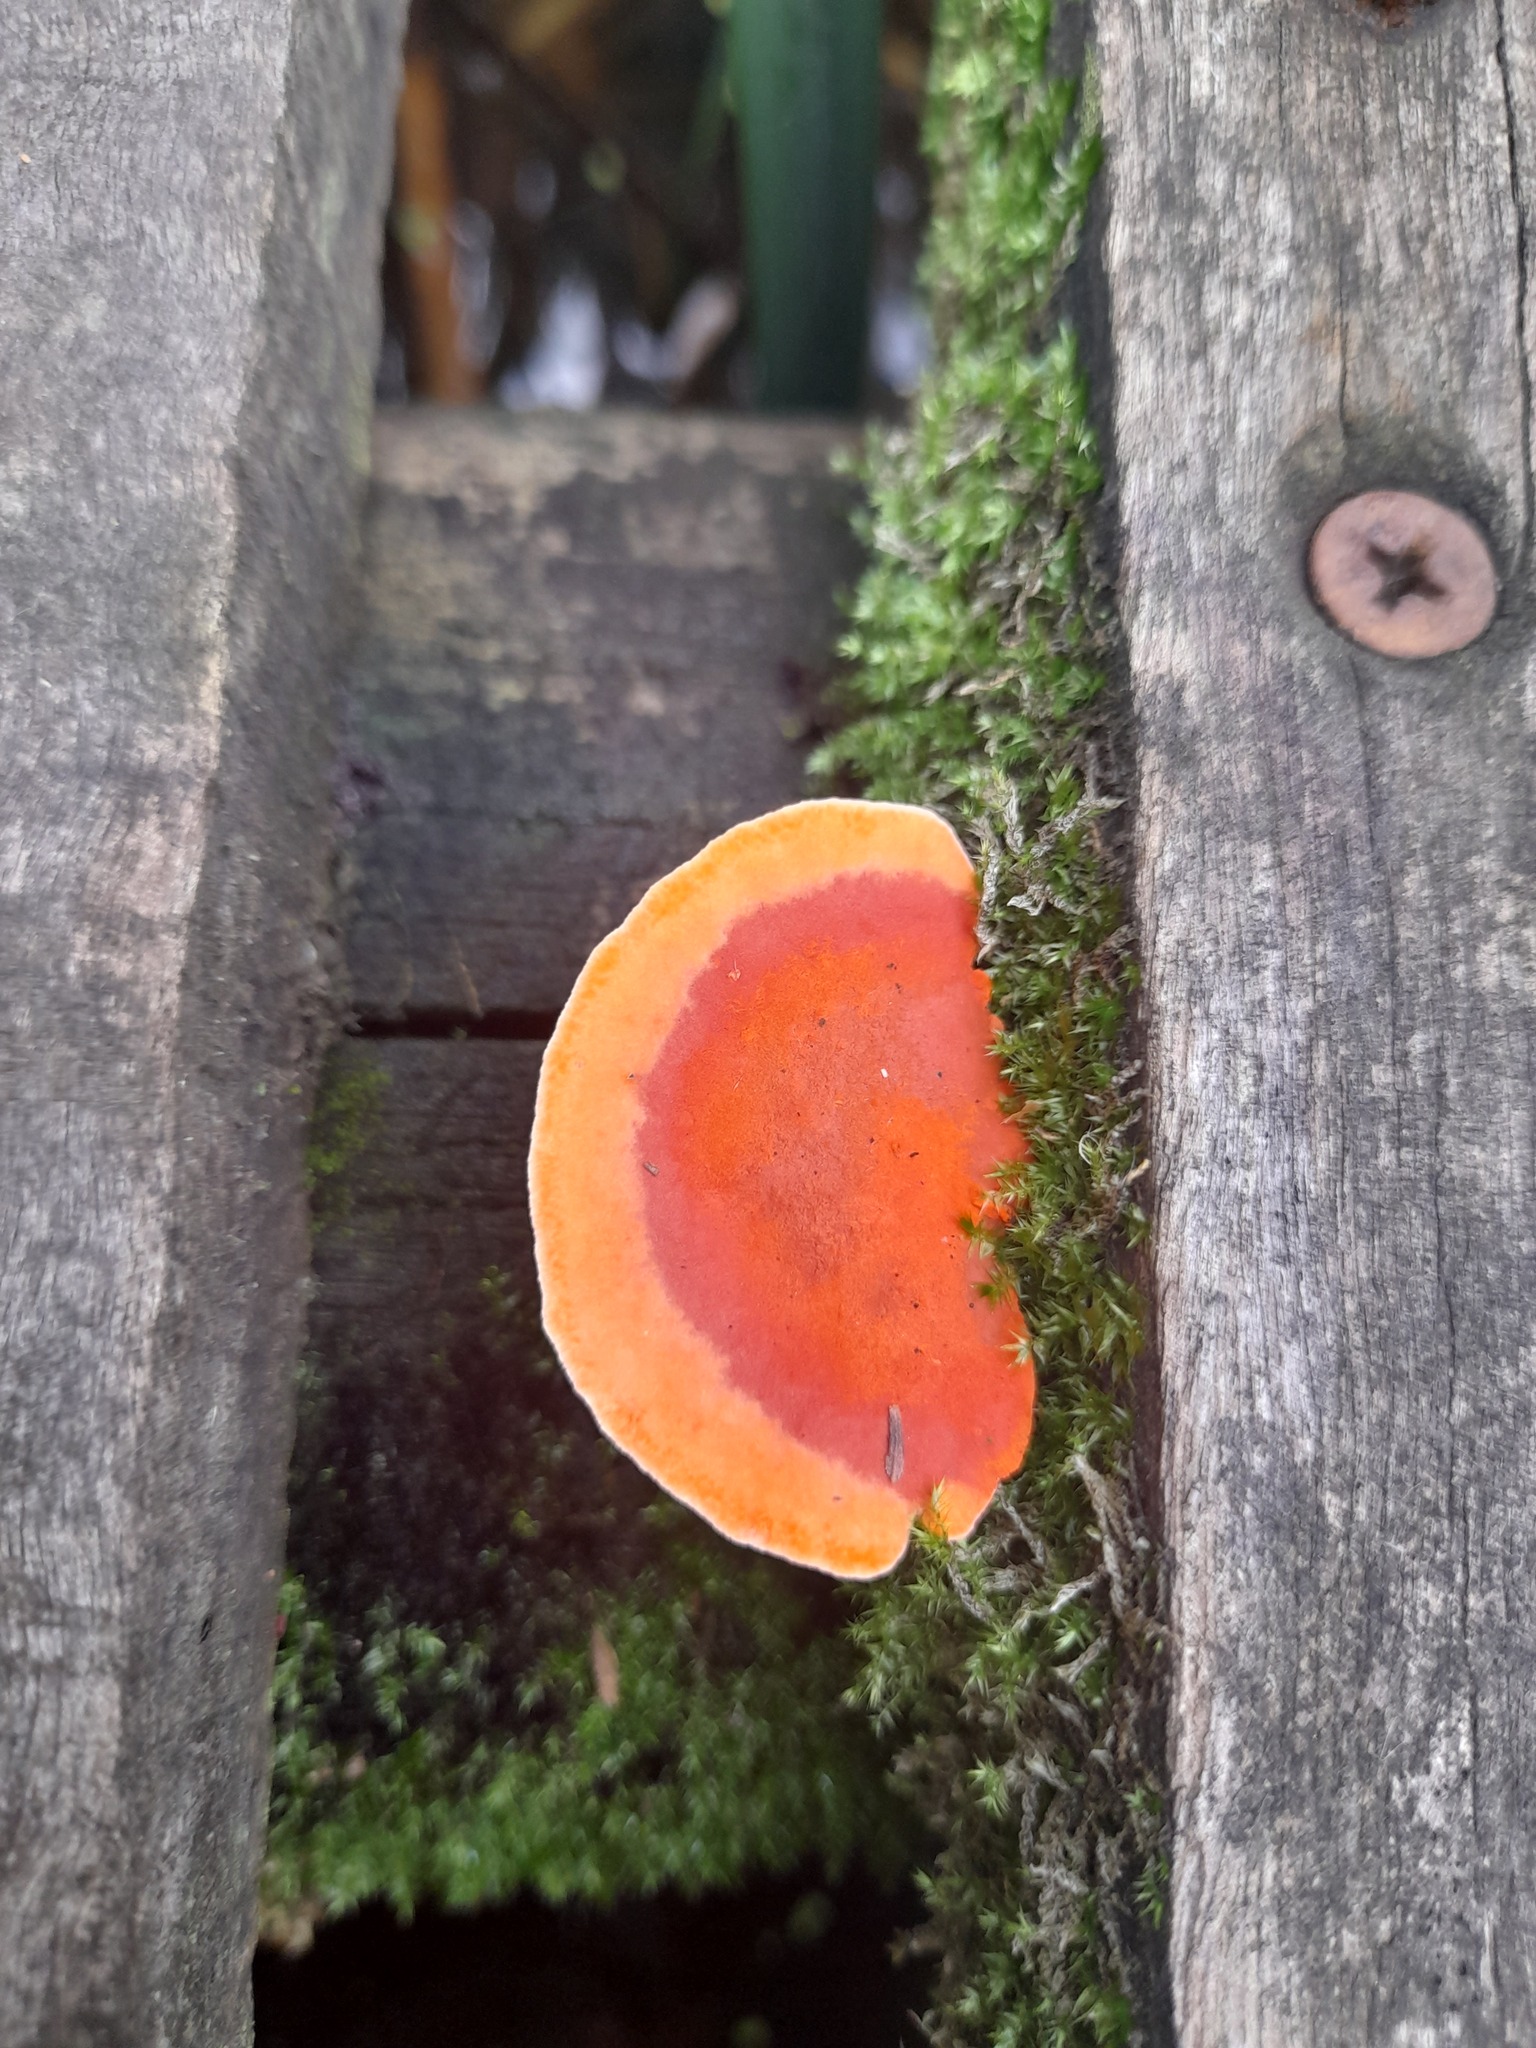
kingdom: Fungi
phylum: Basidiomycota
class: Agaricomycetes
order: Polyporales
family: Polyporaceae
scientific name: Polyporaceae
